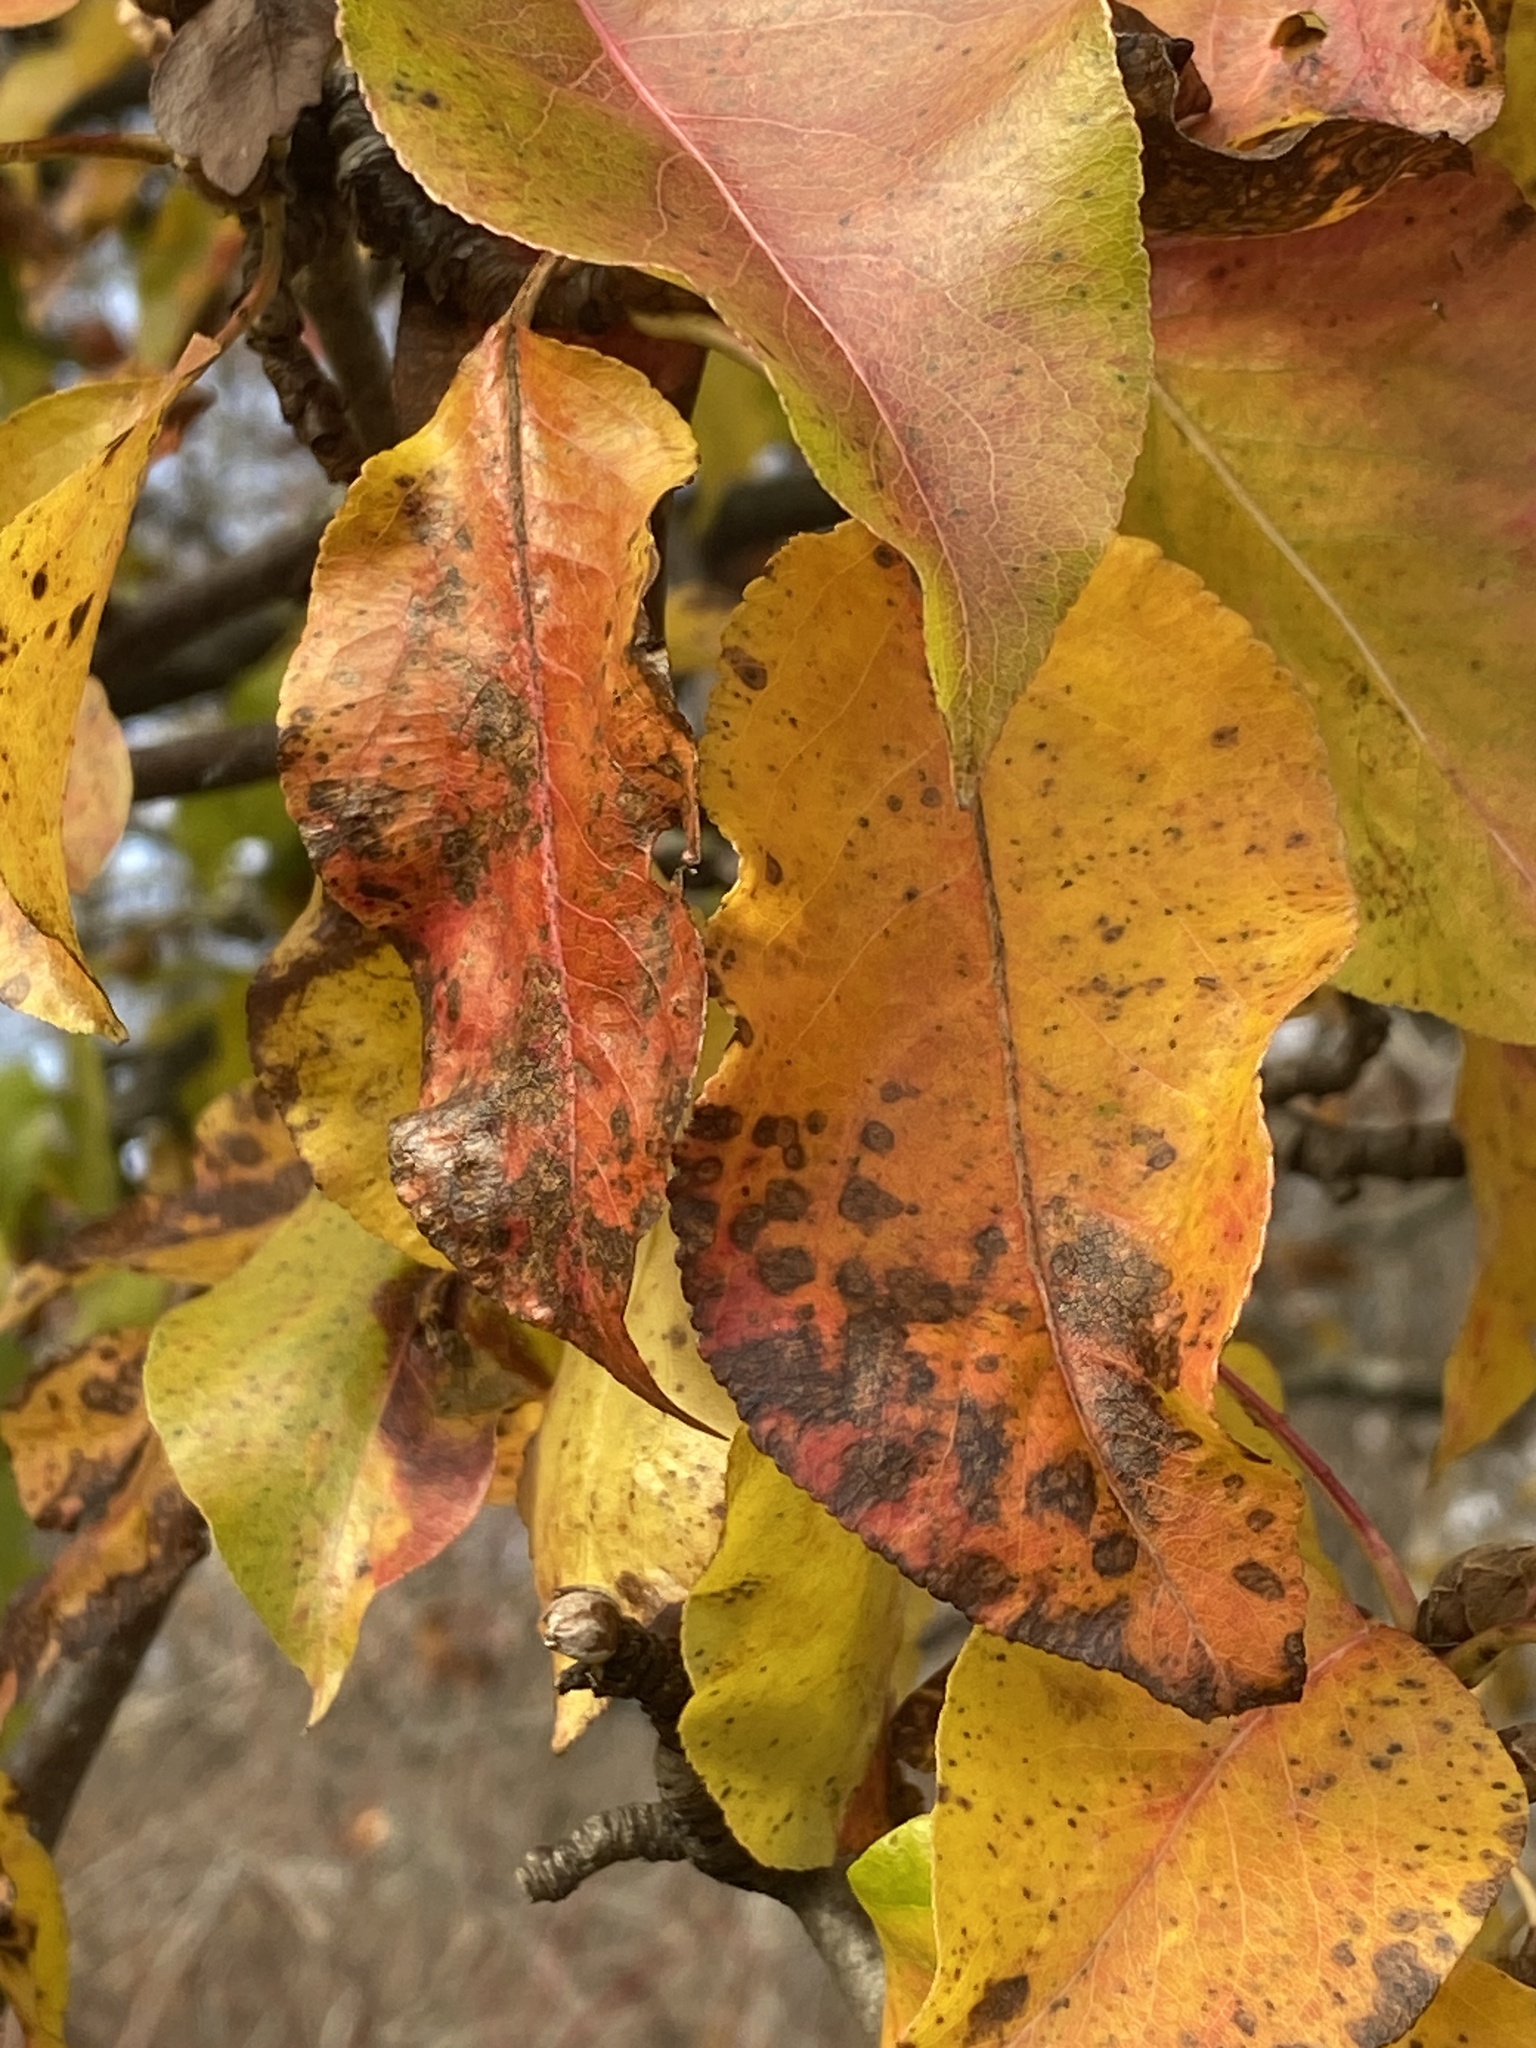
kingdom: Fungi
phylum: Basidiomycota
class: Pucciniomycetes
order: Pucciniales
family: Gymnosporangiaceae
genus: Gymnosporangium
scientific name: Gymnosporangium sabinae
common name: Pear trellis rust fungus
